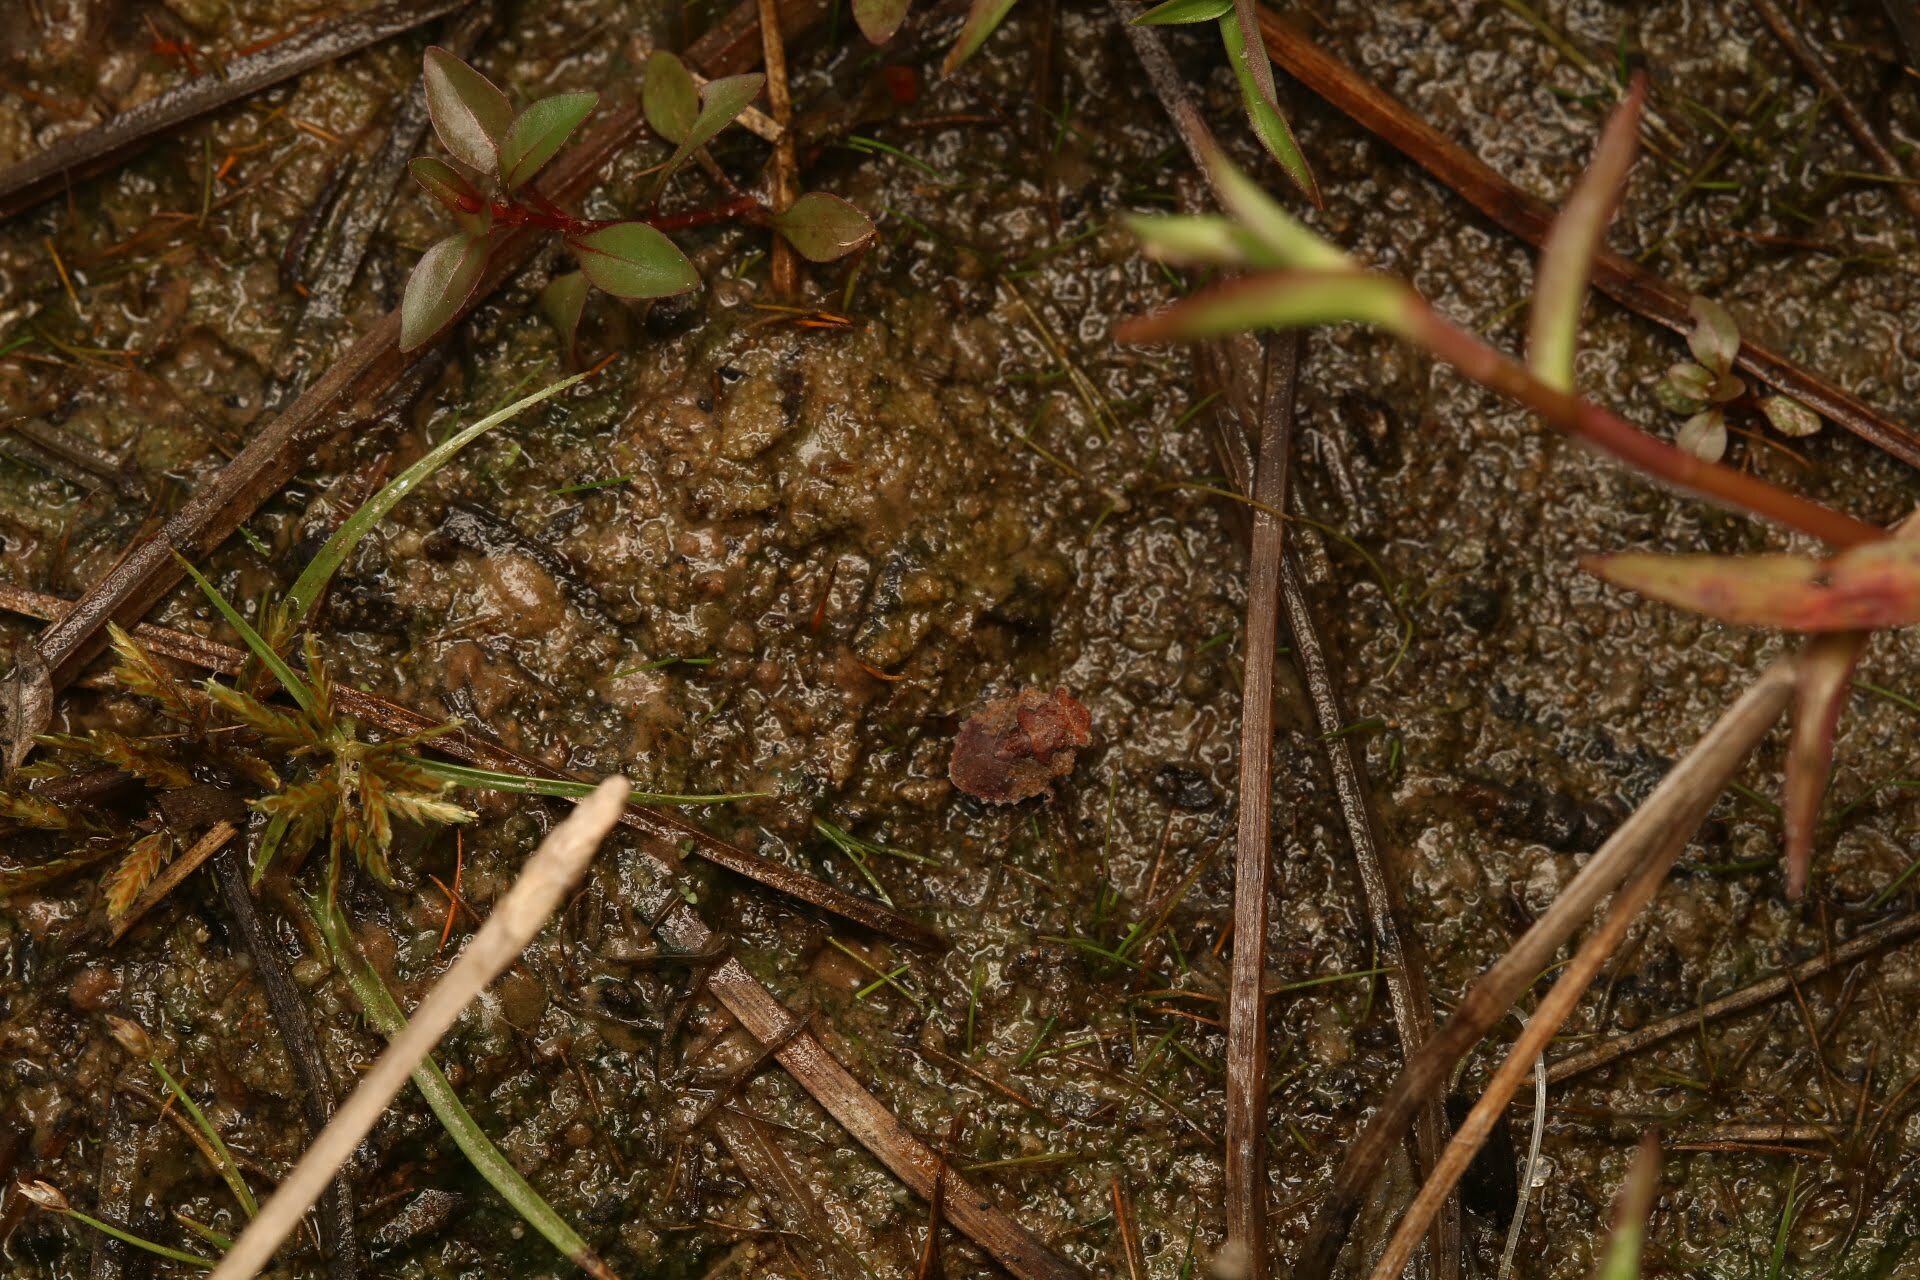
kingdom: Animalia
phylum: Arthropoda
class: Insecta
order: Hemiptera
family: Gelastocoridae
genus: Gelastocoris
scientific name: Gelastocoris oculatus
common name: Toad bug
